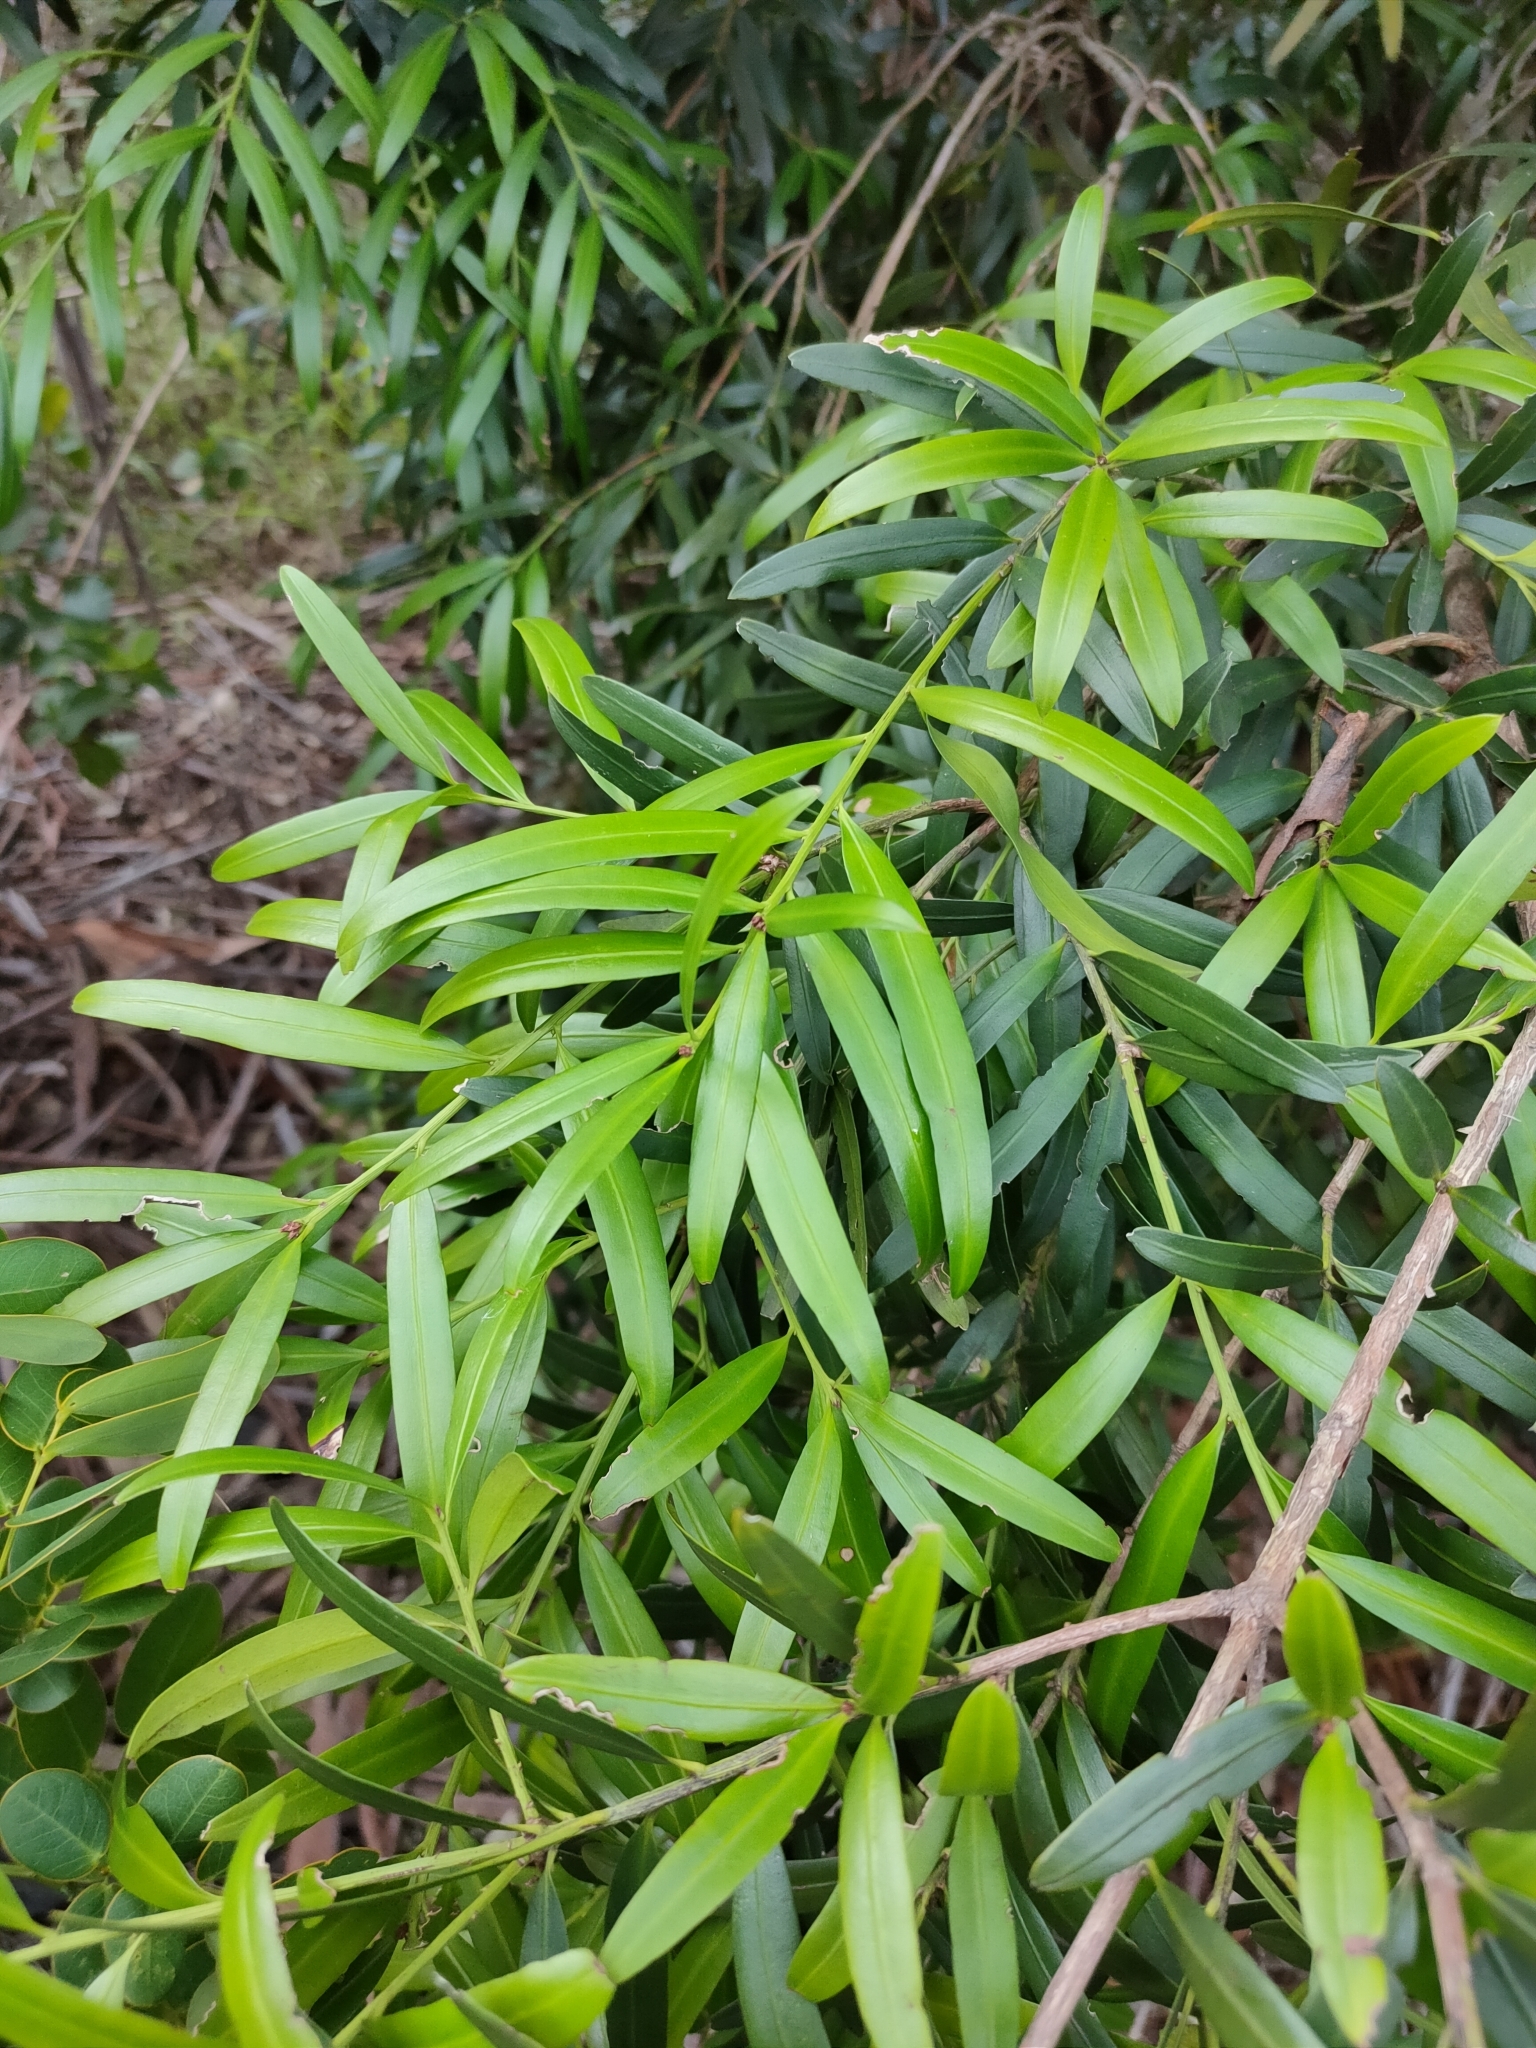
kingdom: Plantae
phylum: Tracheophyta
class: Pinopsida
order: Pinales
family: Podocarpaceae
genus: Podocarpus
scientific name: Podocarpus elatus
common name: Plum pine
